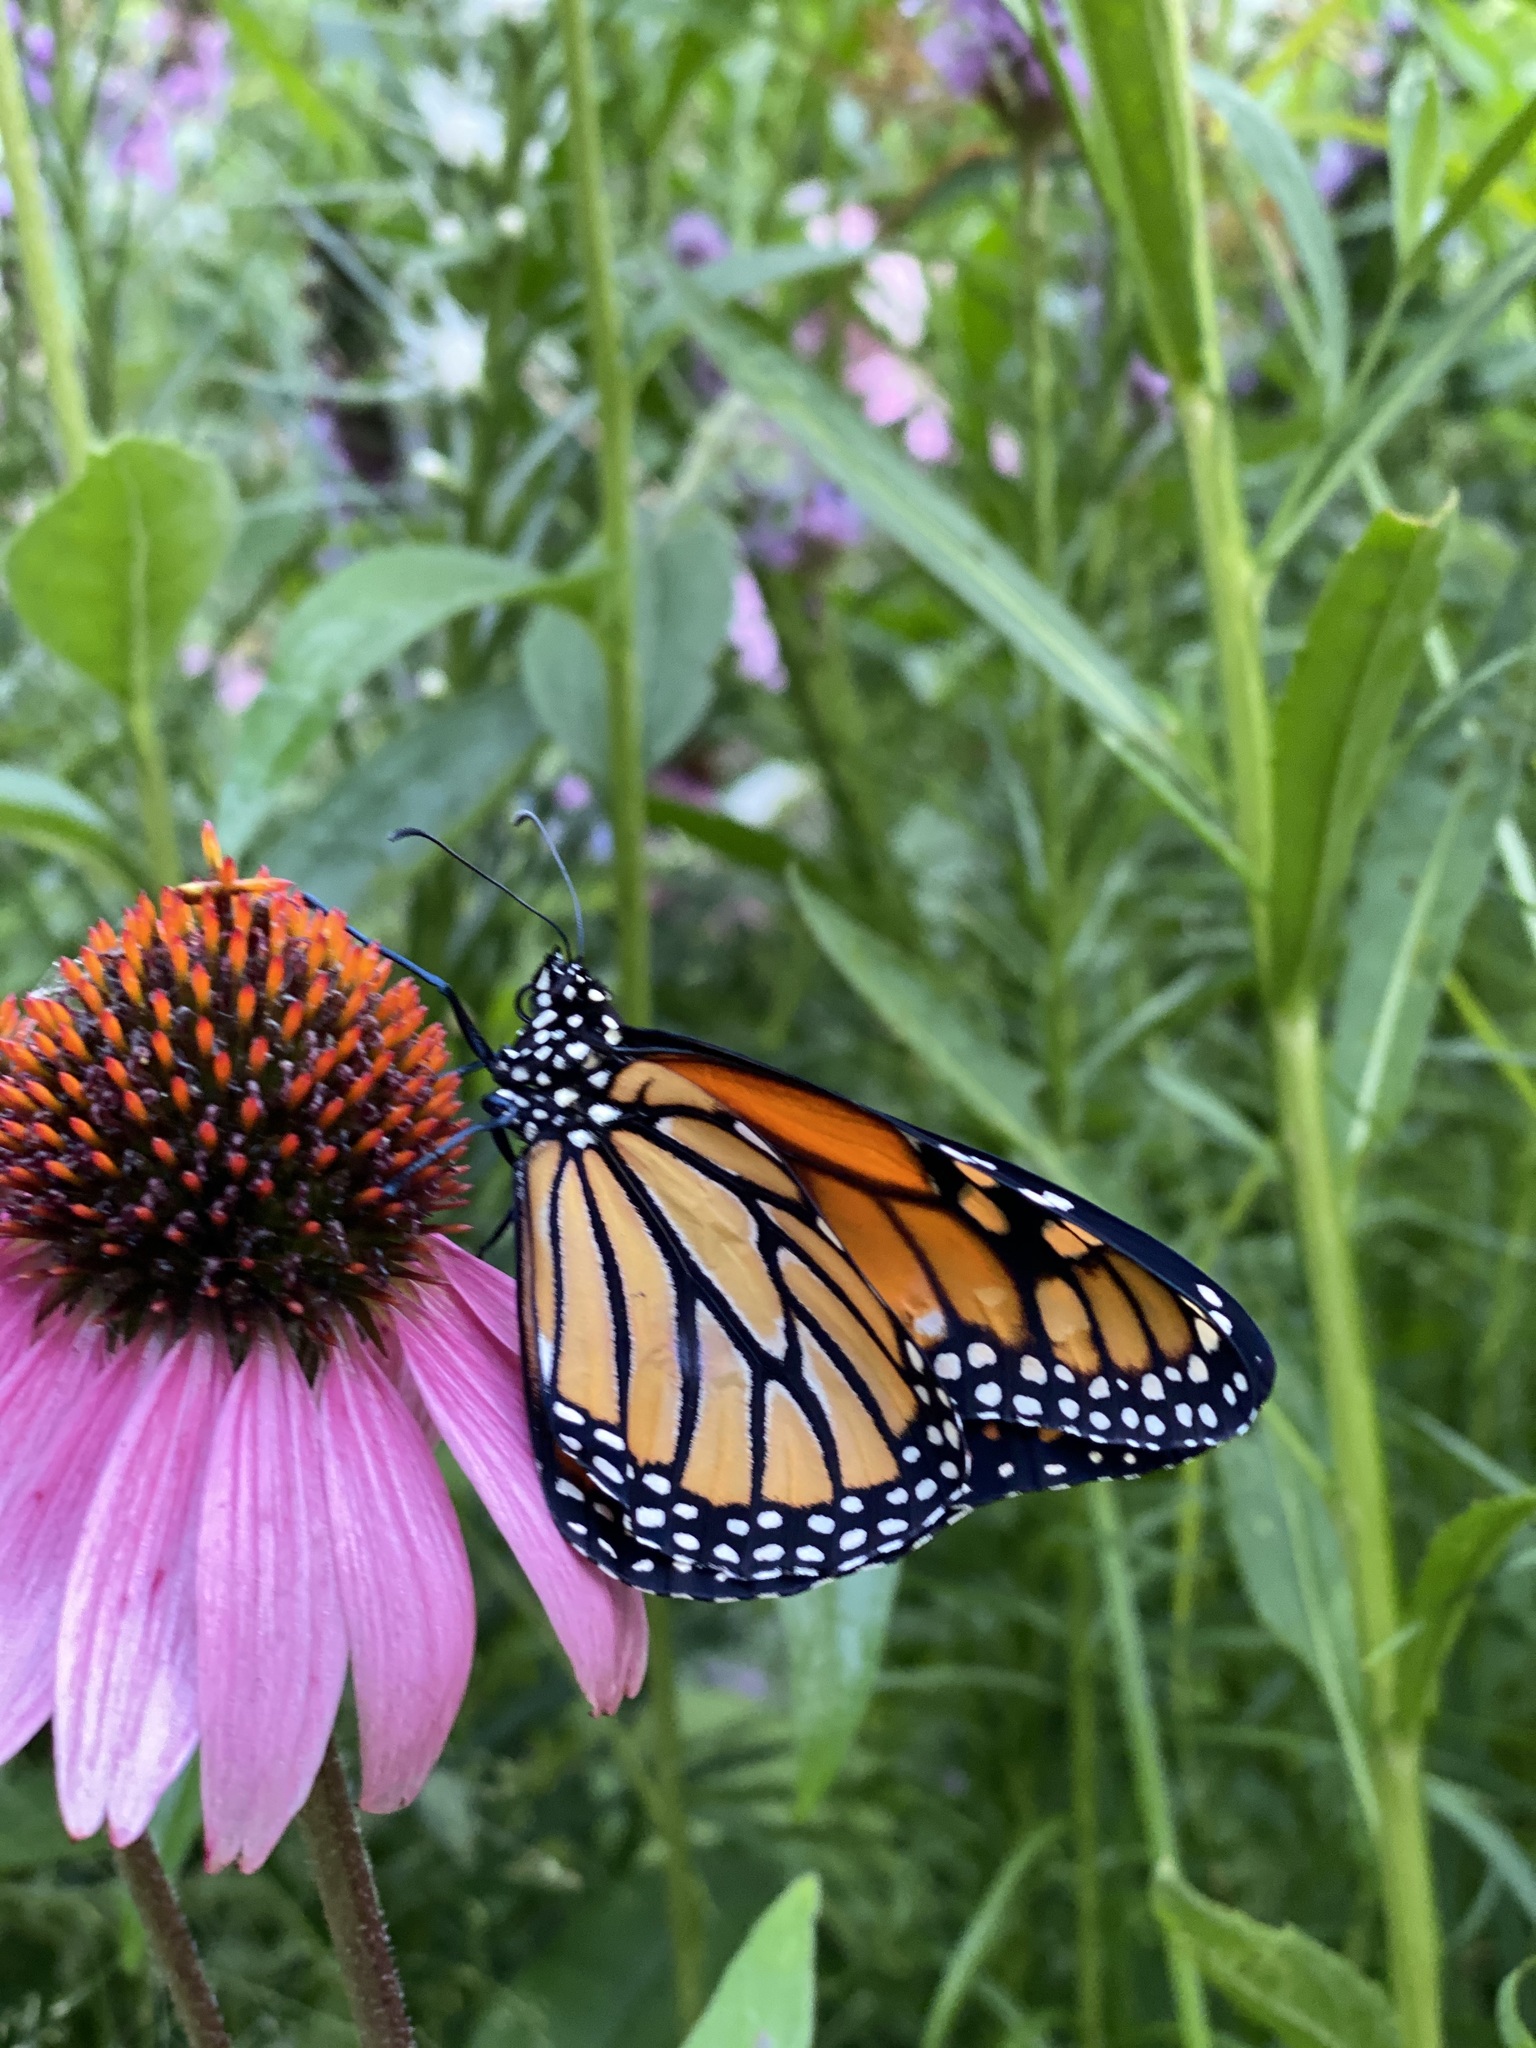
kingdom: Animalia
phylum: Arthropoda
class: Insecta
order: Lepidoptera
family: Nymphalidae
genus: Danaus
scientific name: Danaus plexippus
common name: Monarch
